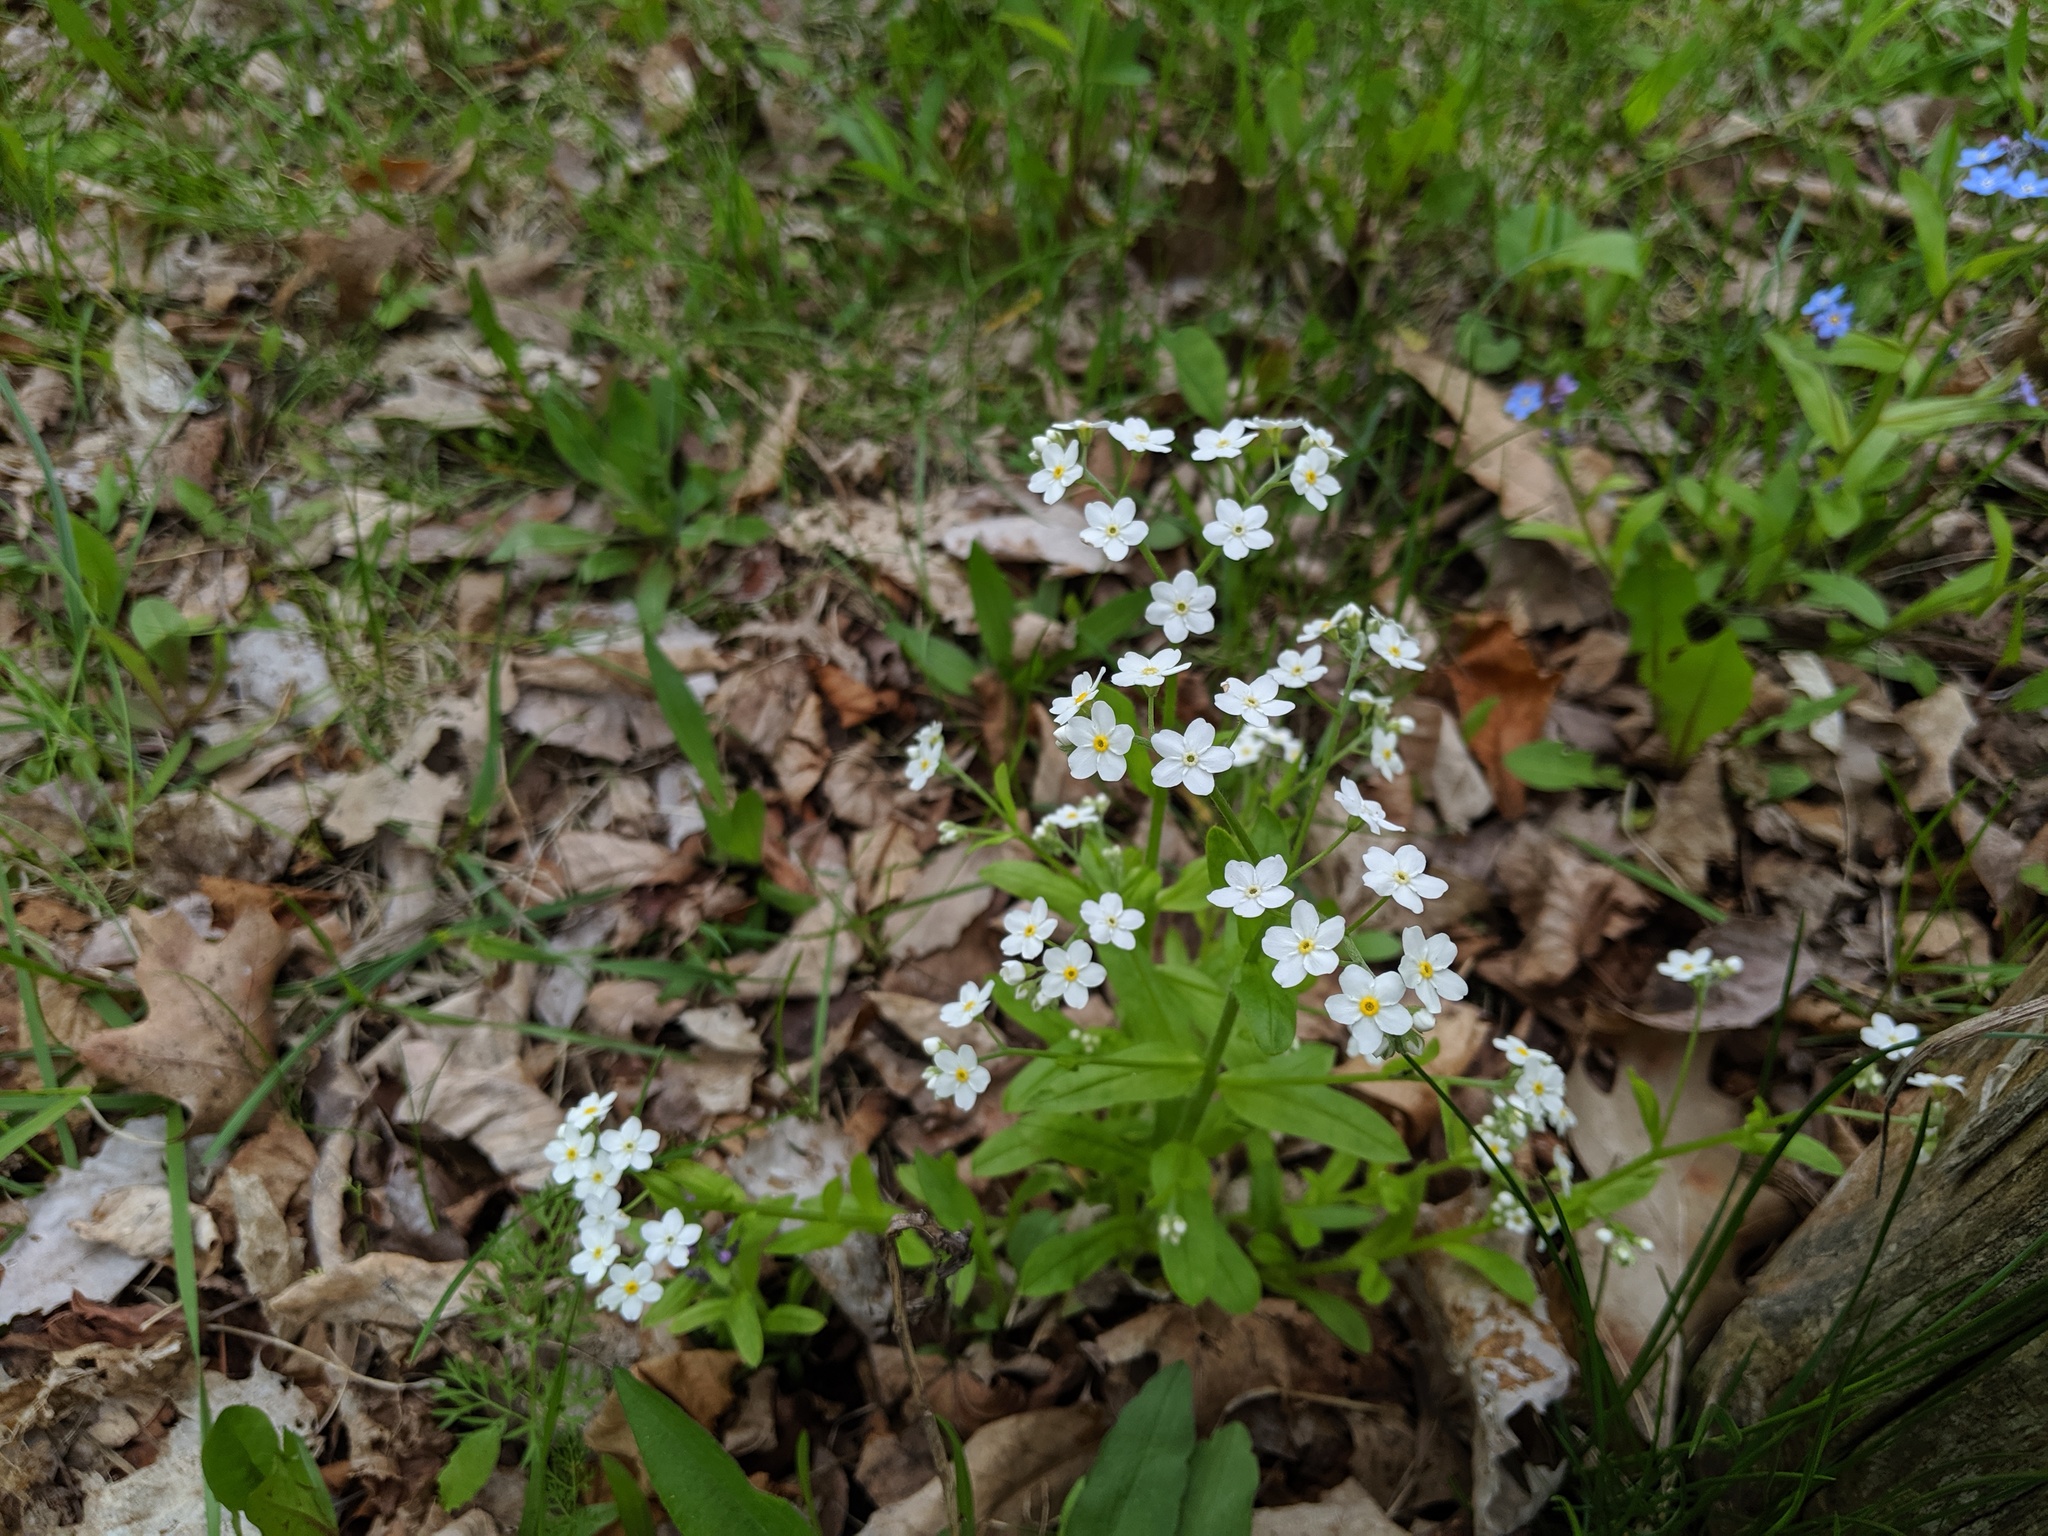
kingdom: Plantae
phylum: Tracheophyta
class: Magnoliopsida
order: Boraginales
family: Boraginaceae
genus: Myosotis
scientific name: Myosotis sylvatica
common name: Wood forget-me-not
